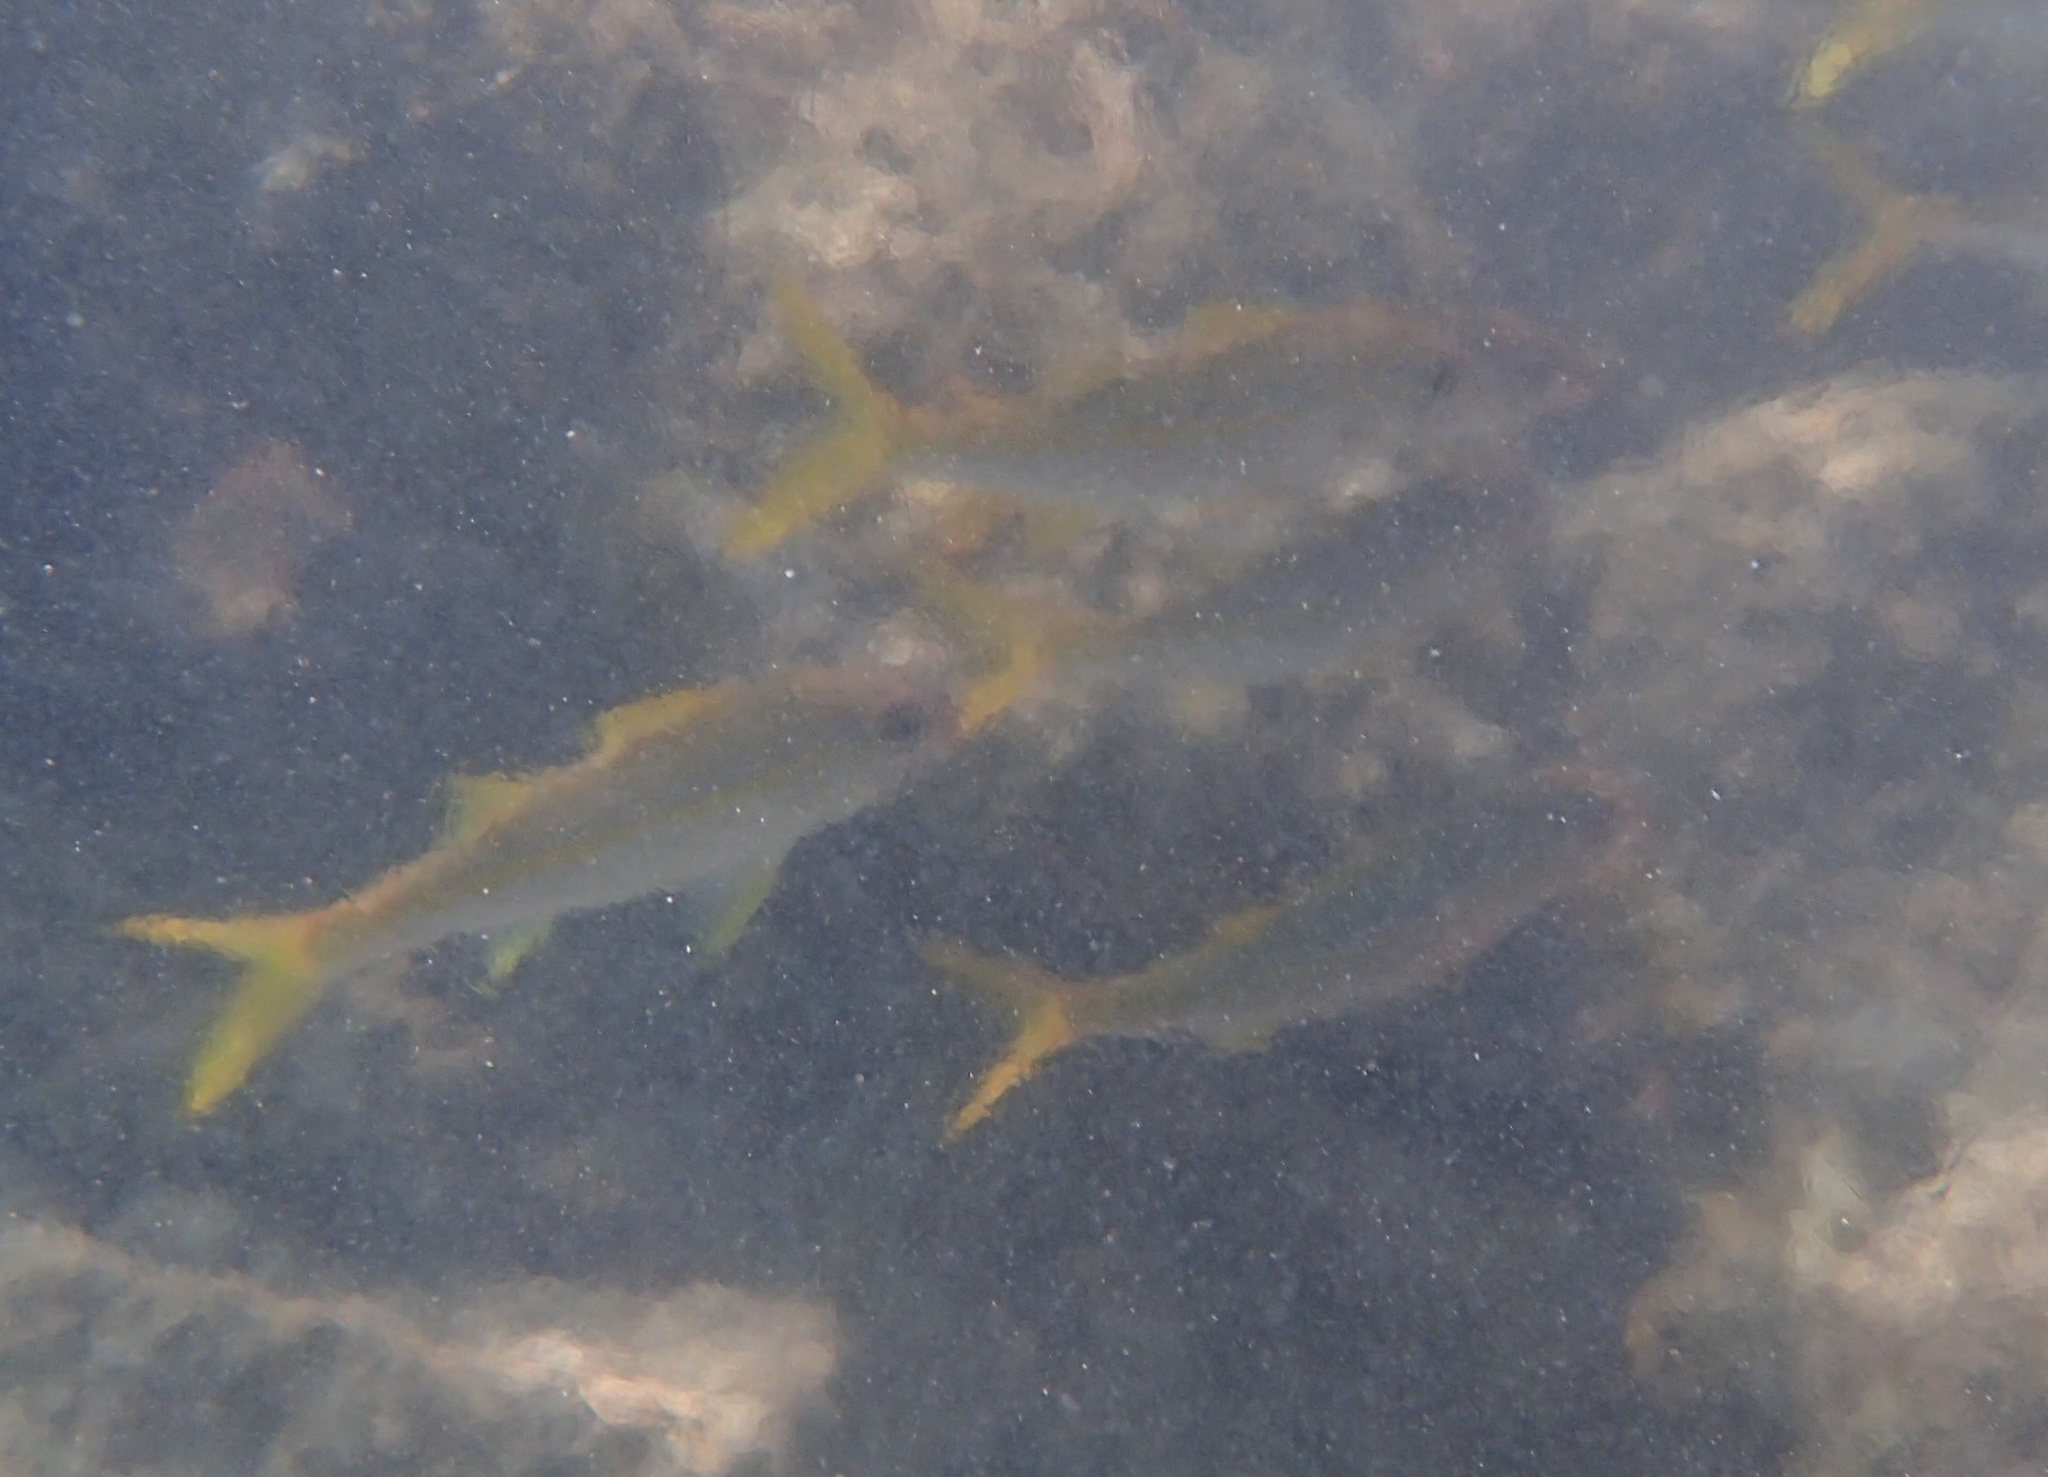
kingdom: Animalia
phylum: Chordata
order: Perciformes
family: Mullidae
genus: Mulloidichthys
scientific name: Mulloidichthys vanicolensis
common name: Yellowfin goatfish
